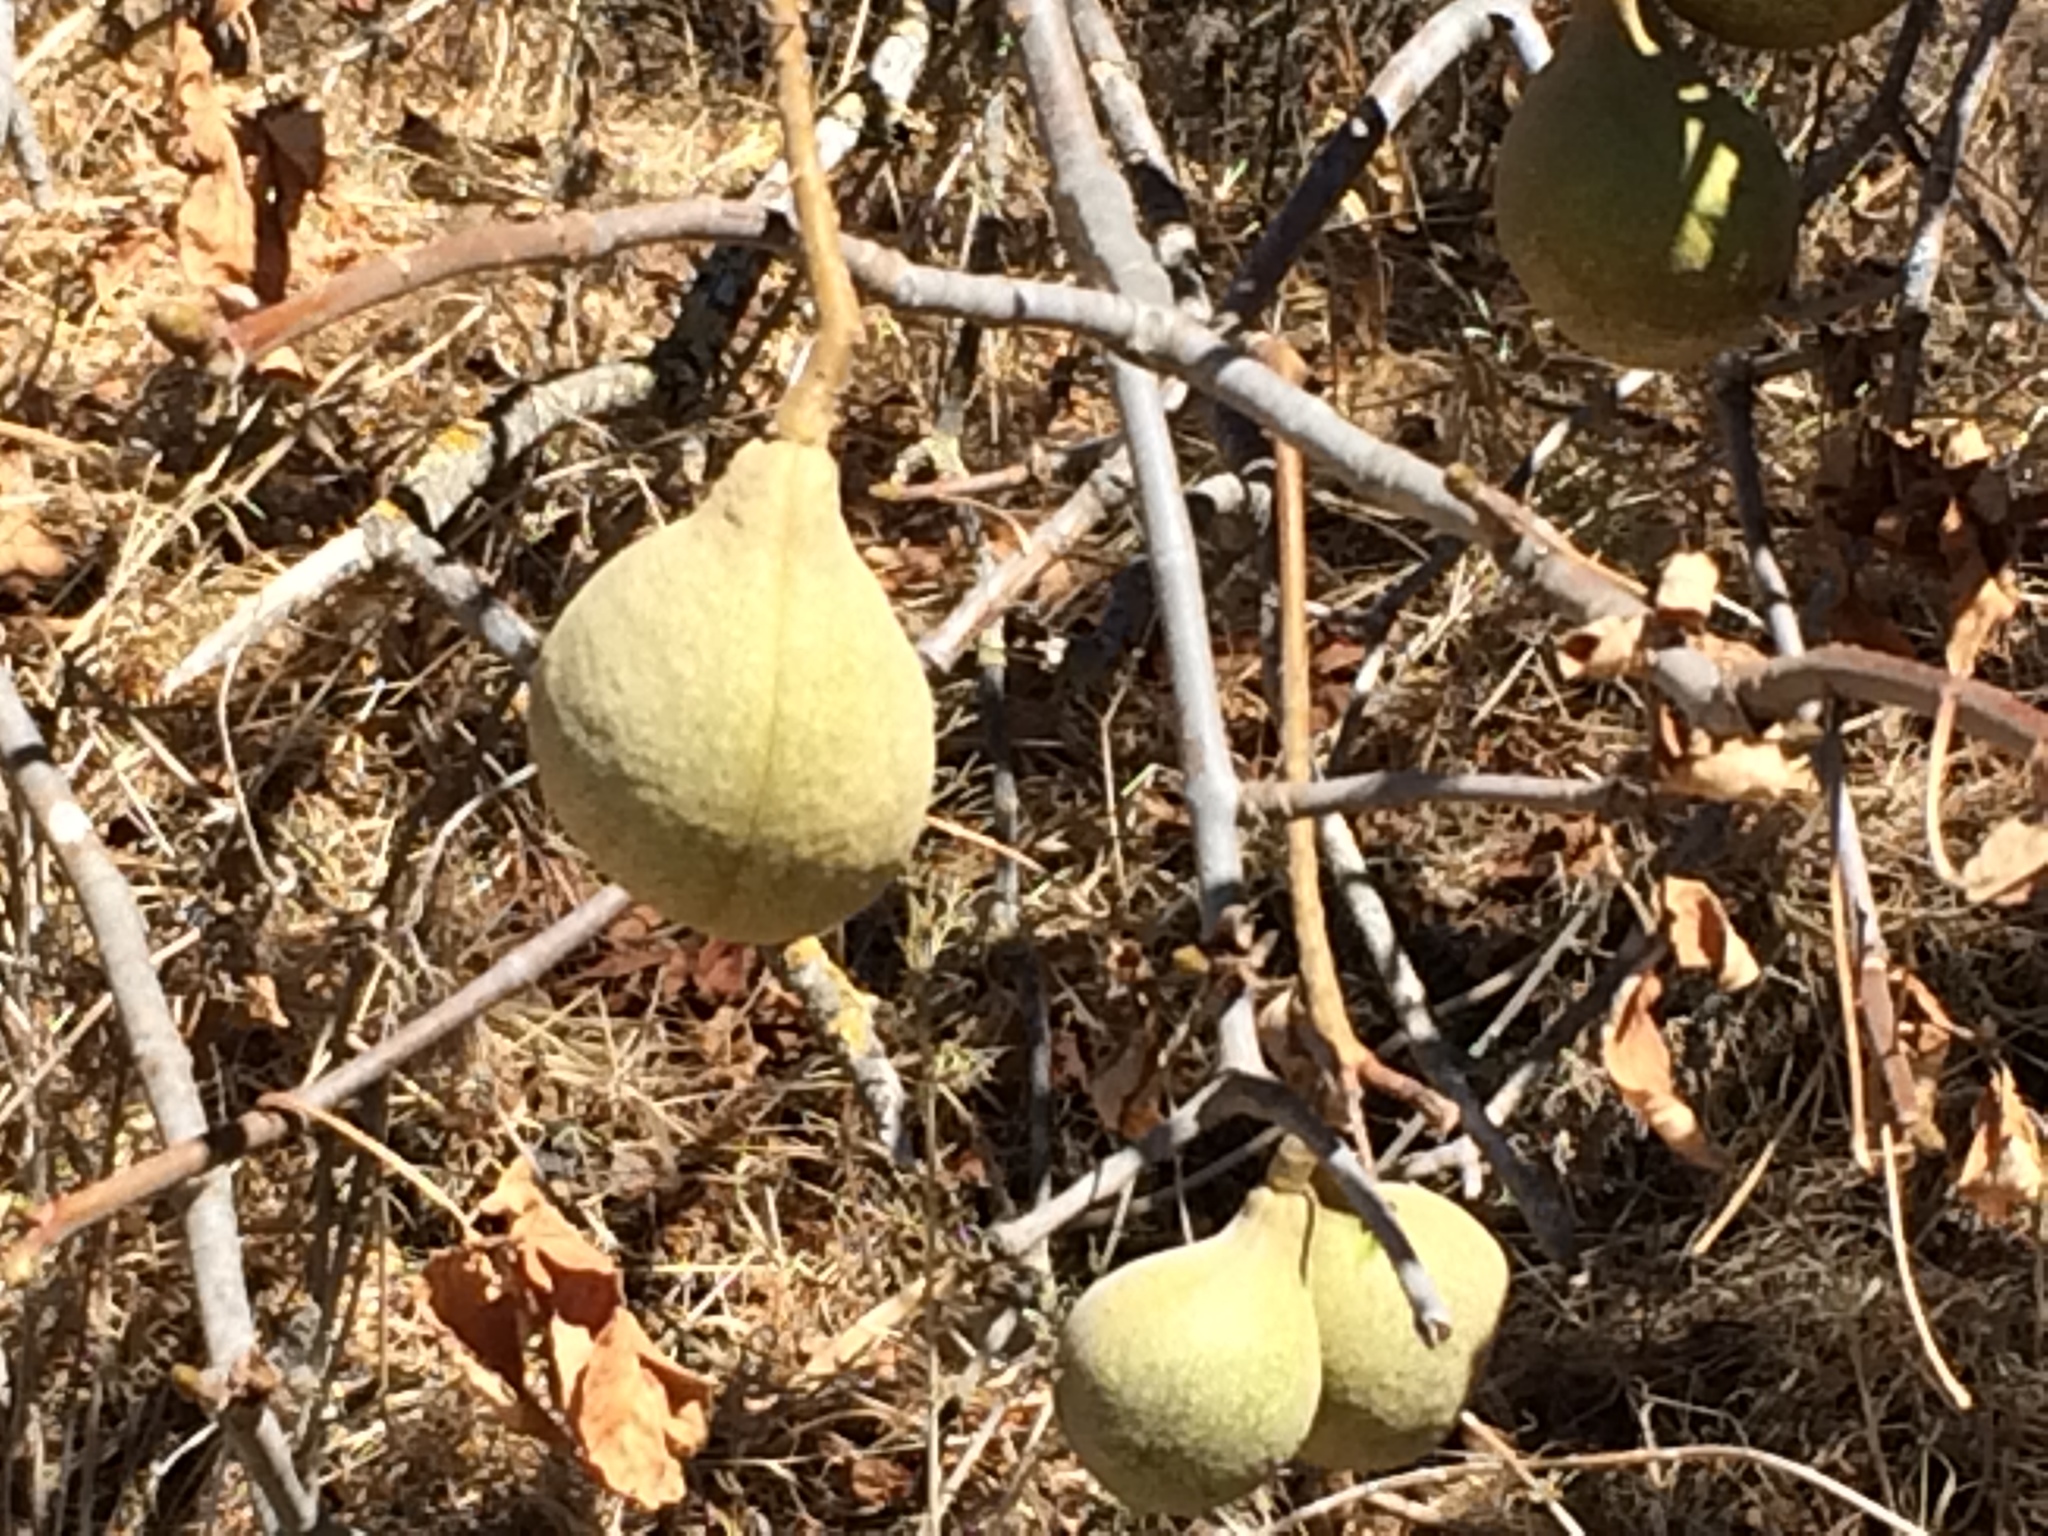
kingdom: Plantae
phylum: Tracheophyta
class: Magnoliopsida
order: Sapindales
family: Sapindaceae
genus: Aesculus
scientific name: Aesculus californica
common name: California buckeye
